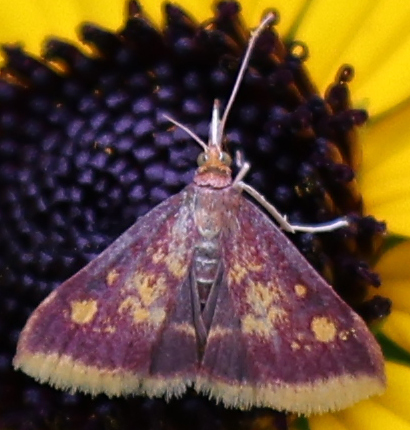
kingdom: Animalia
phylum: Arthropoda
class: Insecta
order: Lepidoptera
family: Crambidae
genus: Pyrausta
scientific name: Pyrausta acrionalis
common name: Mint-loving pyrausta moth
